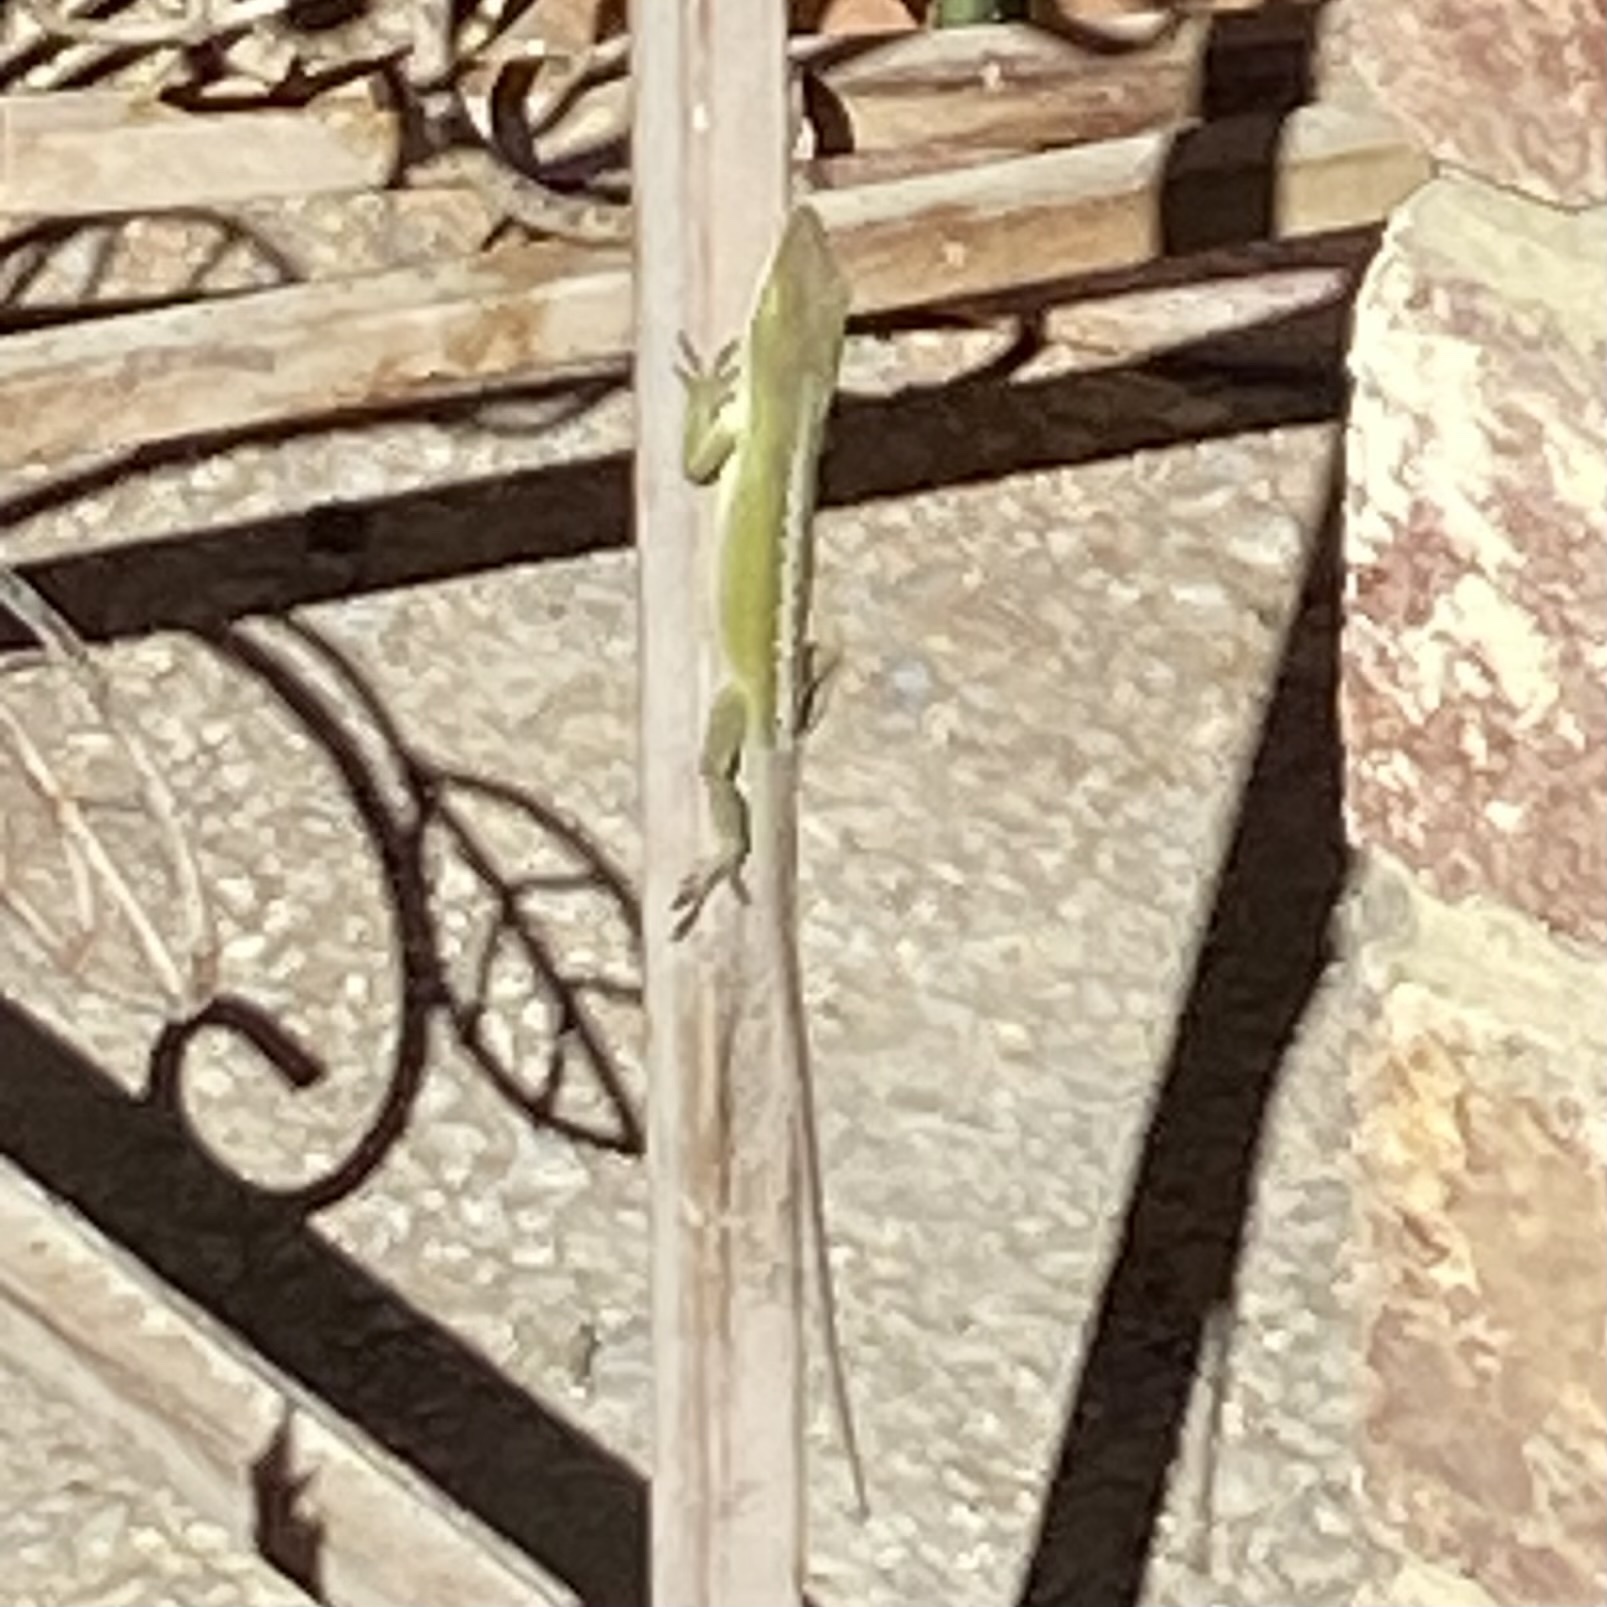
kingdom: Animalia
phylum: Chordata
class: Squamata
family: Dactyloidae
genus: Anolis
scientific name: Anolis carolinensis
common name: Green anole
